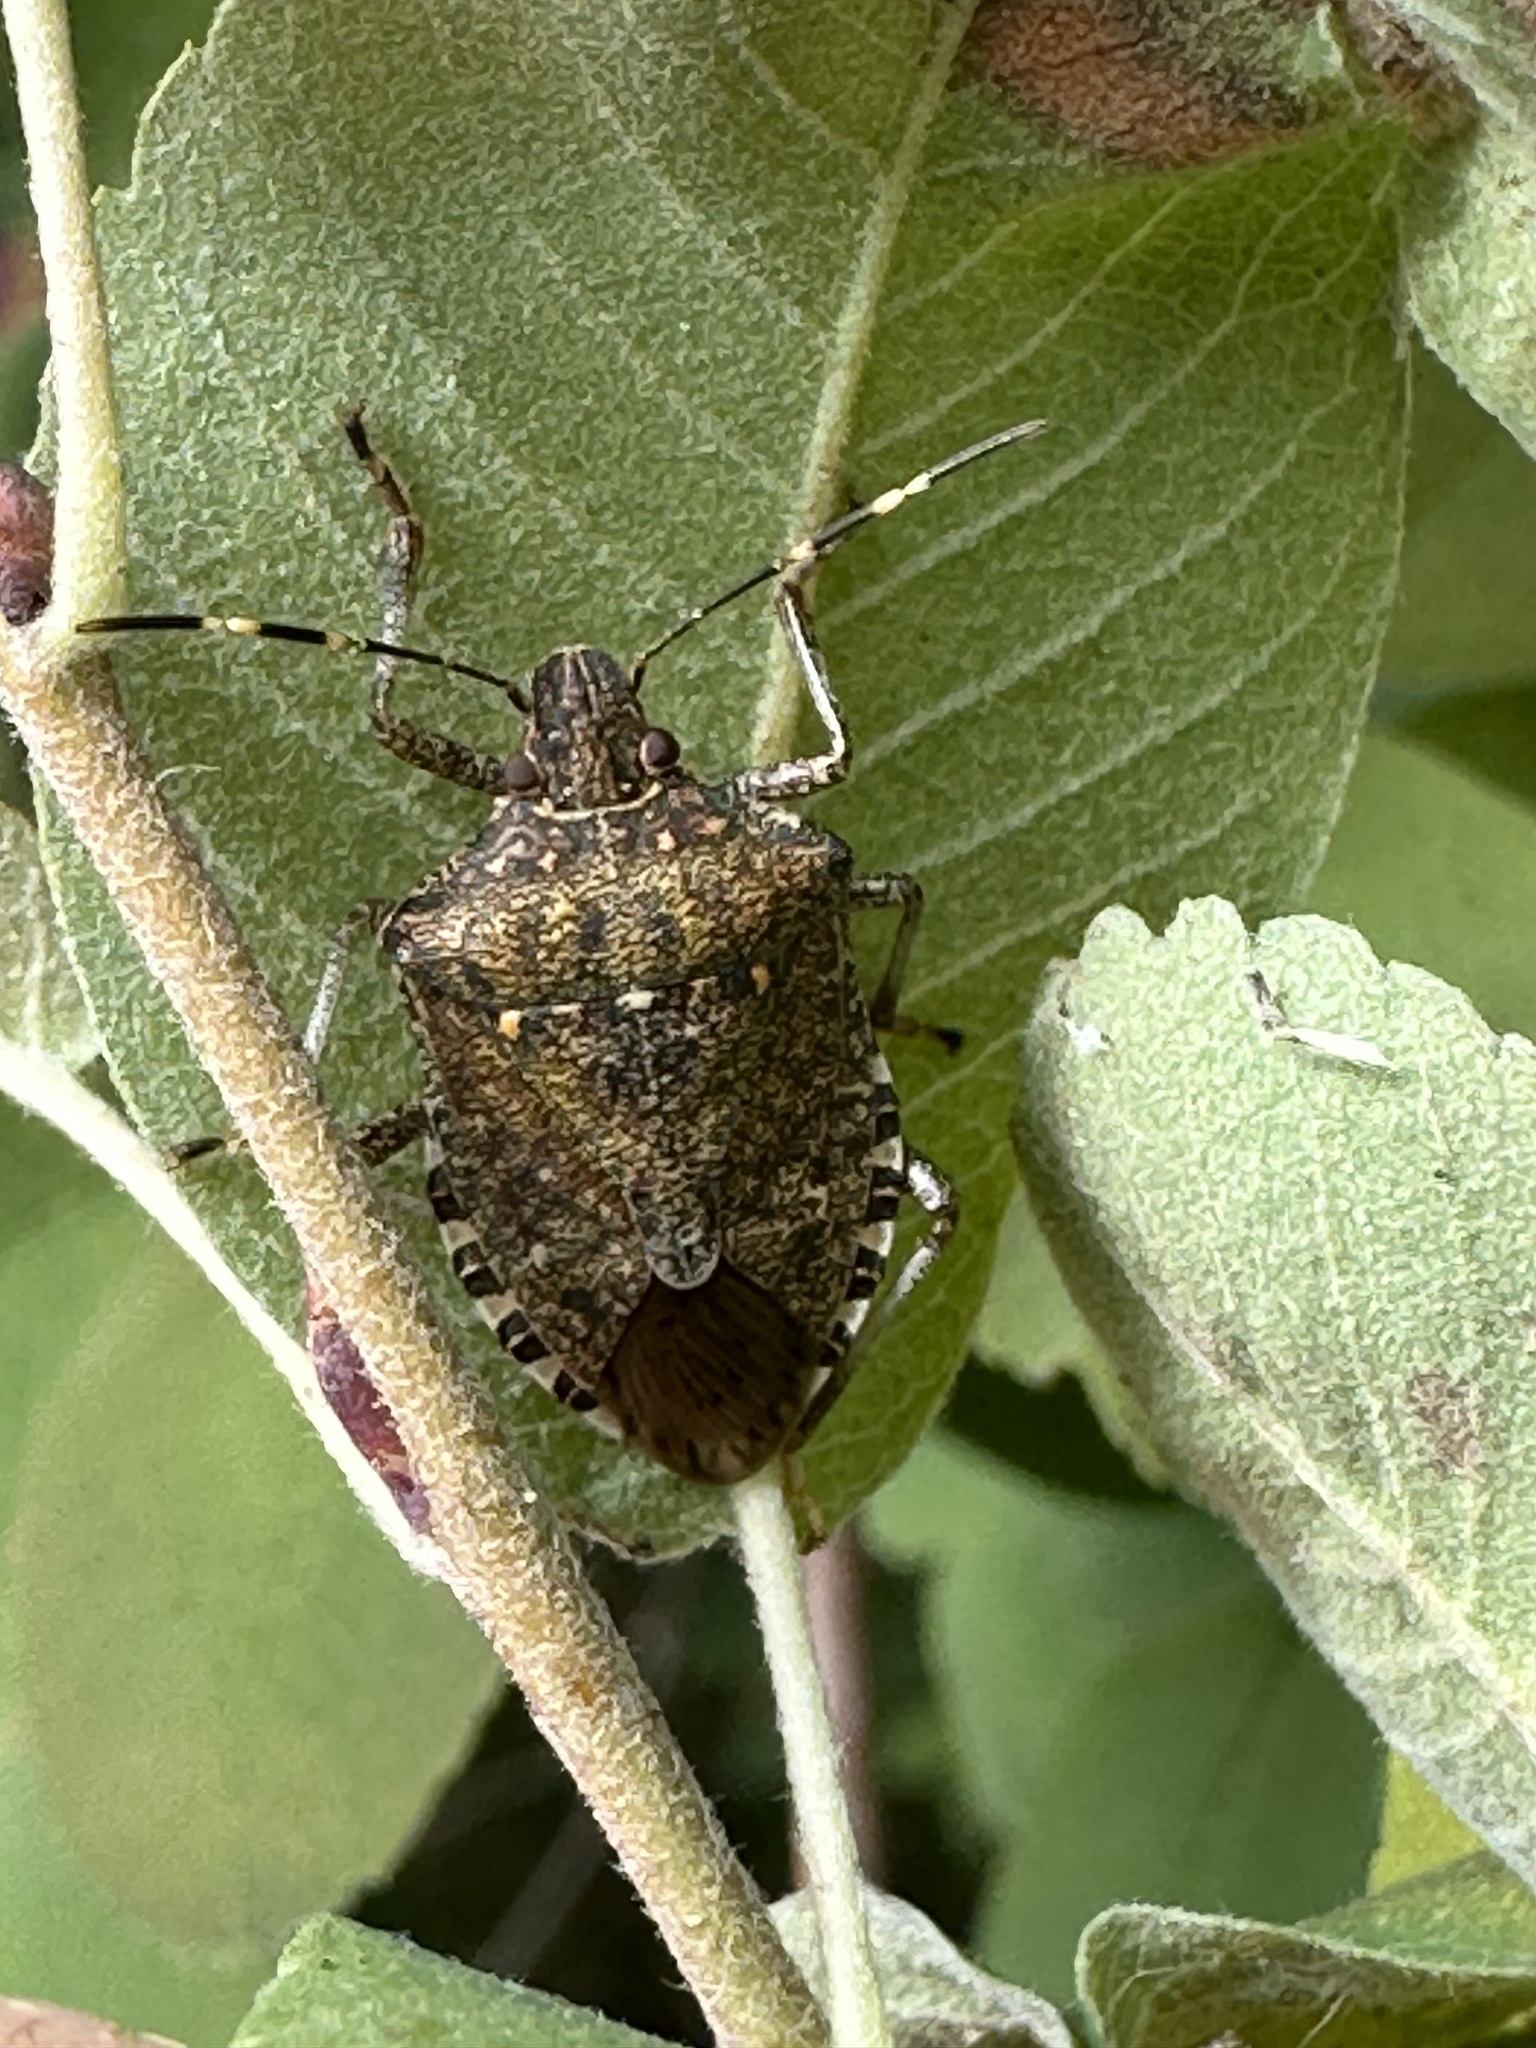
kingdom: Animalia
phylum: Arthropoda
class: Insecta
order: Hemiptera
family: Pentatomidae
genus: Halyomorpha
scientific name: Halyomorpha halys
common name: Brown marmorated stink bug
